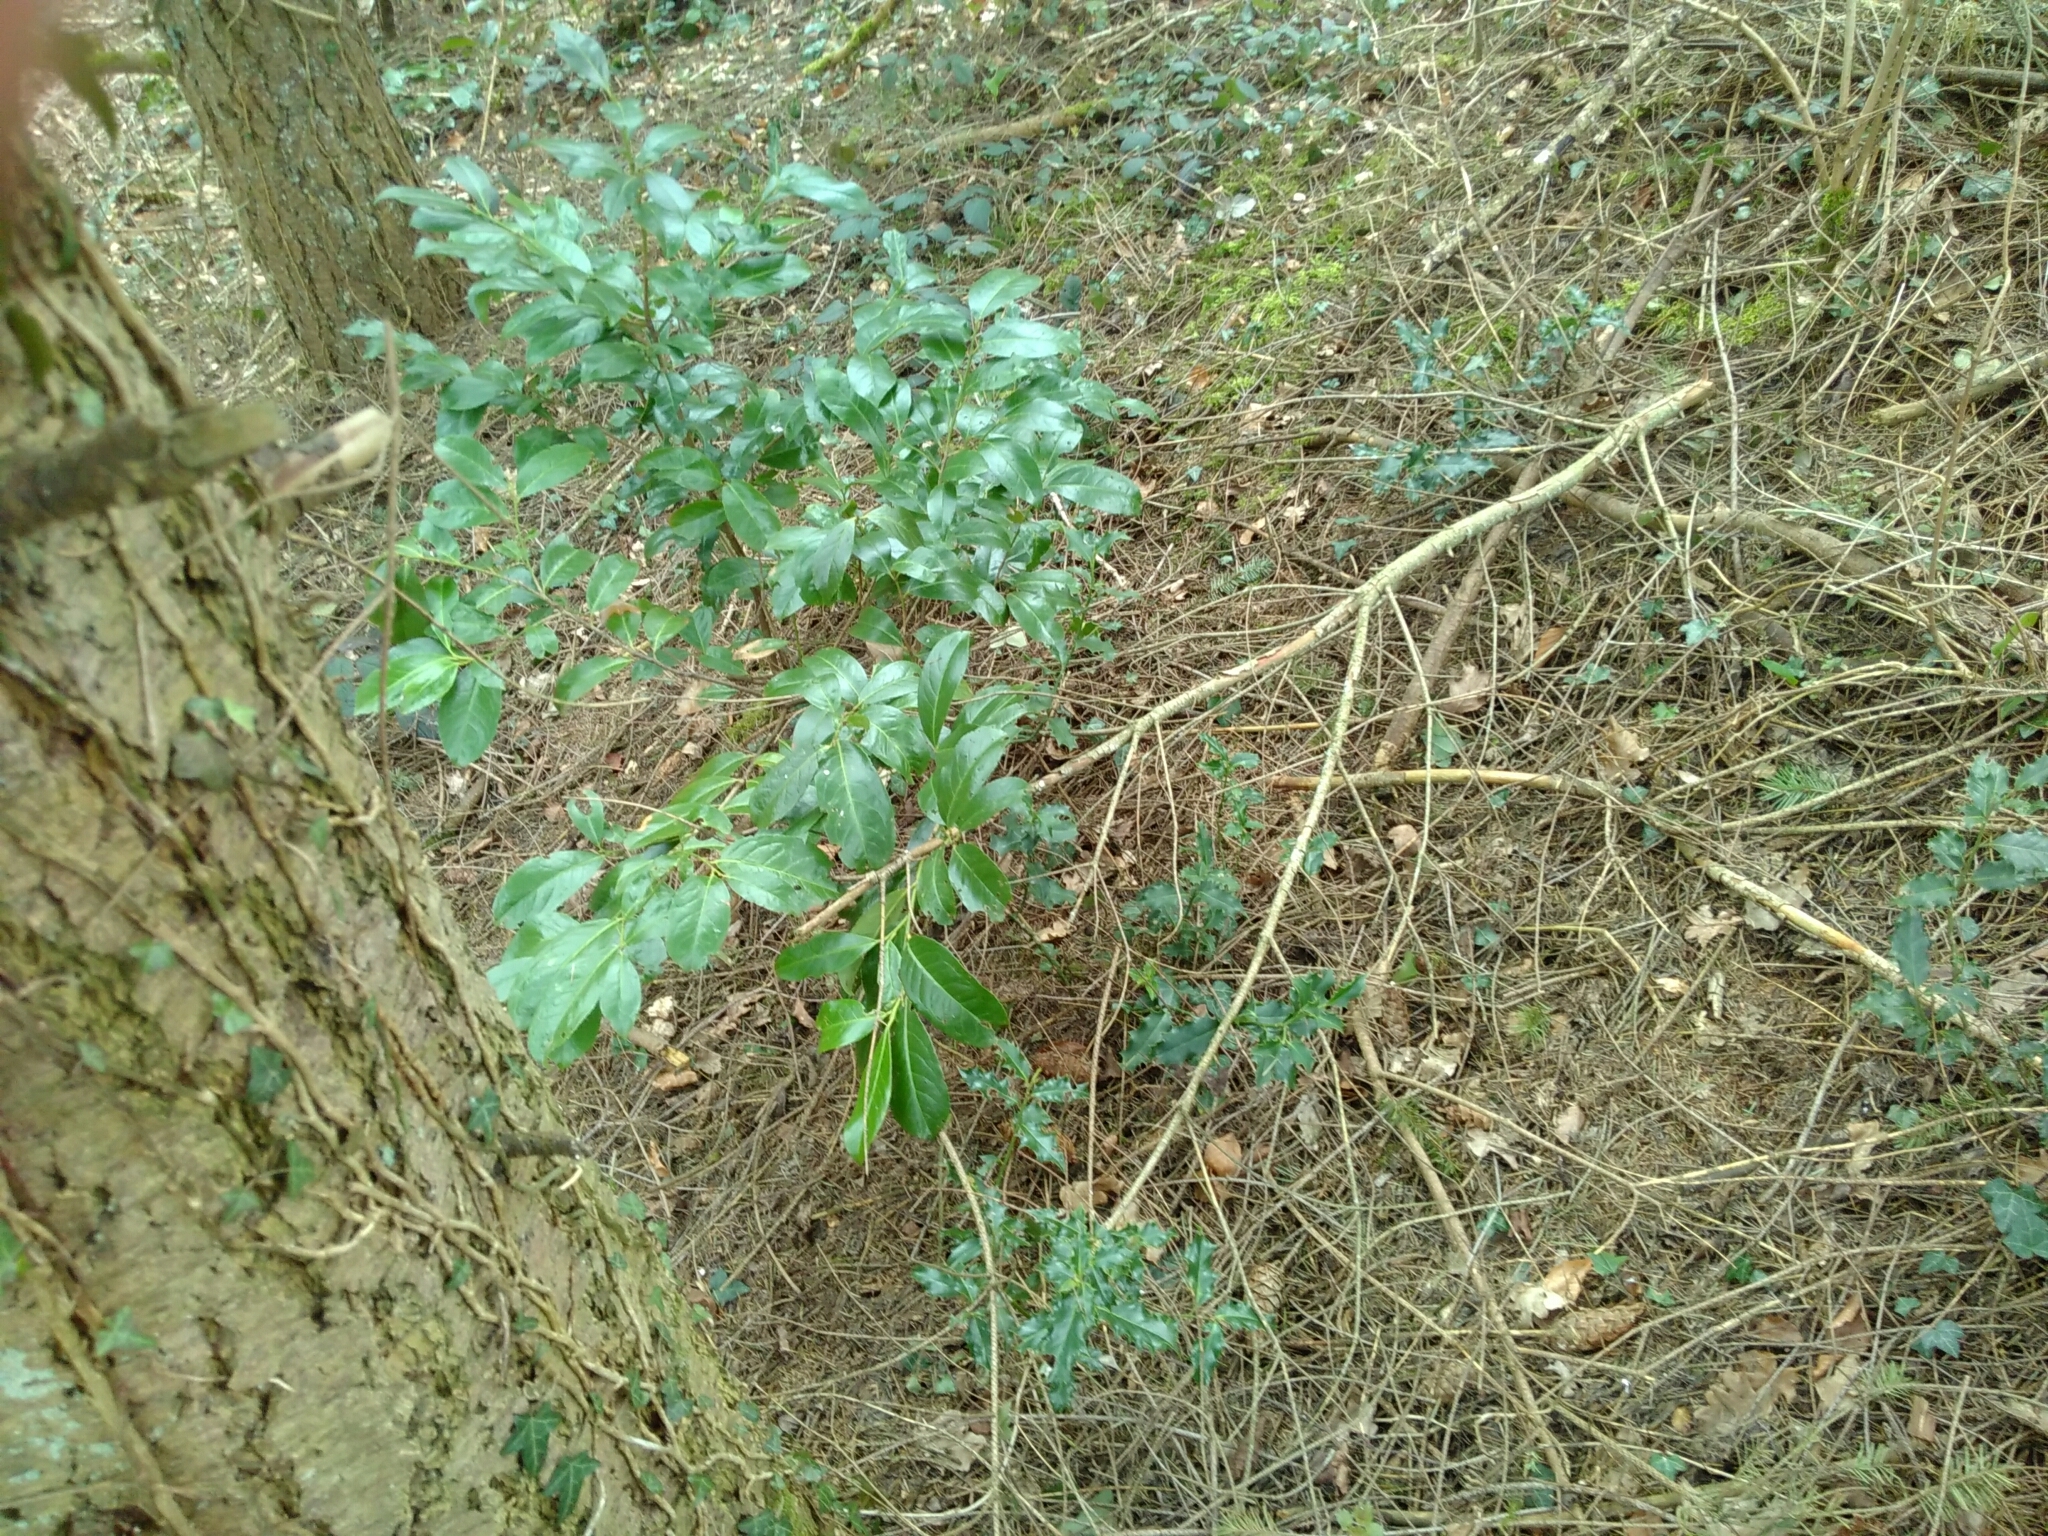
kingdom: Plantae
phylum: Tracheophyta
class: Magnoliopsida
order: Rosales
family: Rosaceae
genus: Prunus
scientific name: Prunus laurocerasus
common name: Cherry laurel
